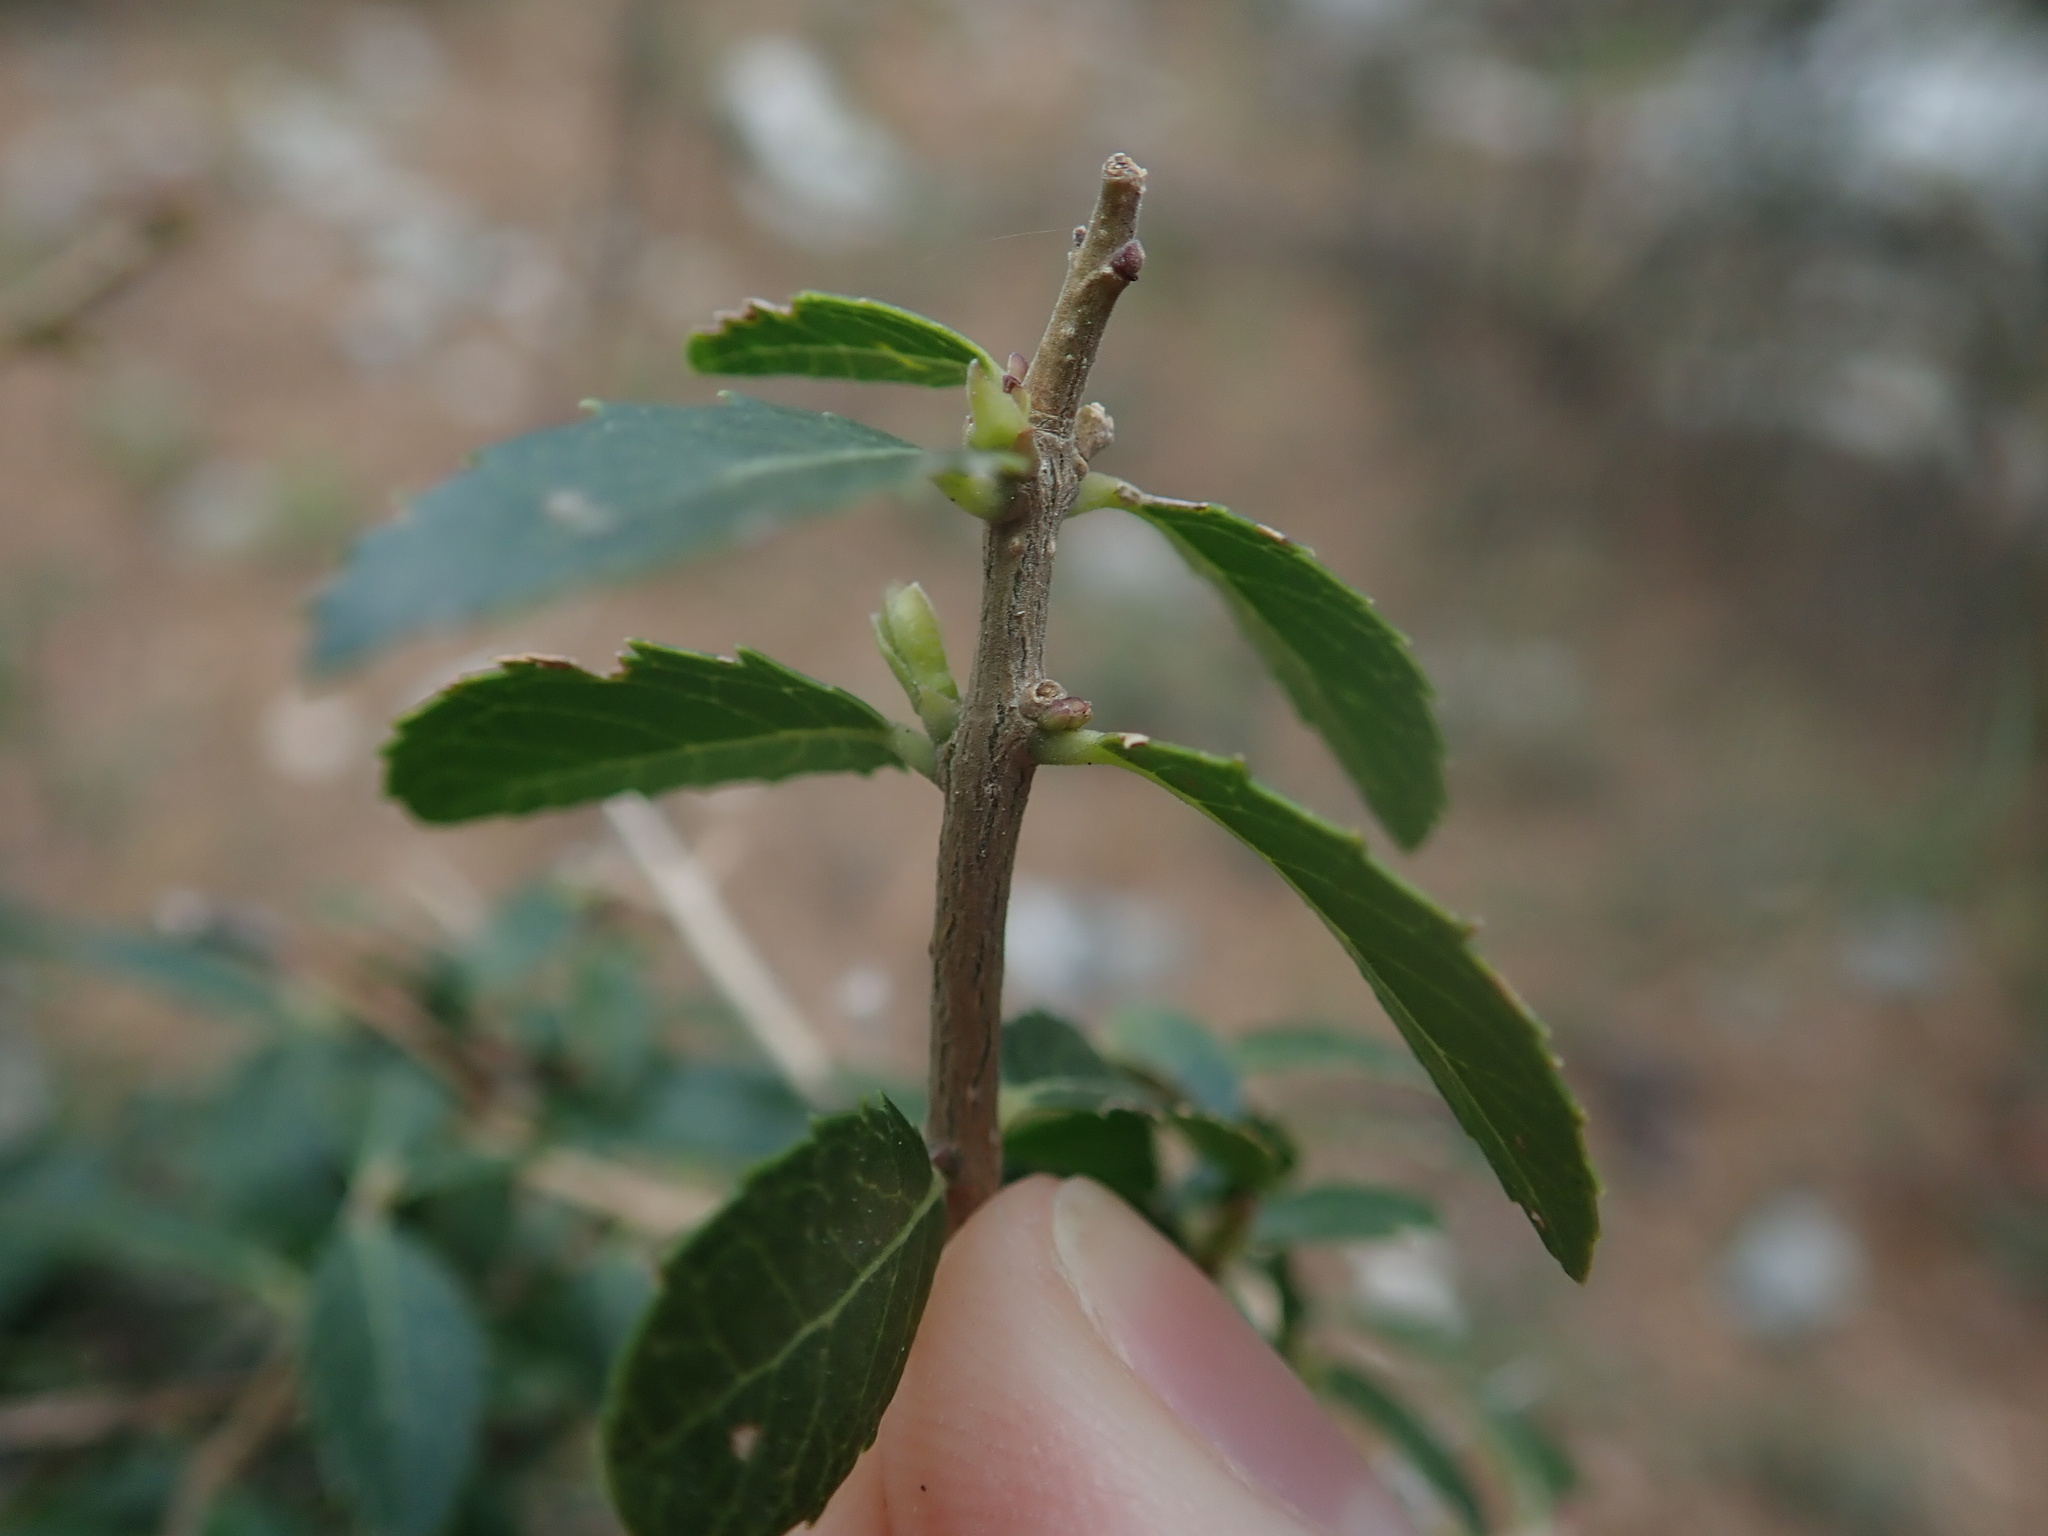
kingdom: Plantae
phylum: Tracheophyta
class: Magnoliopsida
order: Lamiales
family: Oleaceae
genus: Phillyrea
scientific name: Phillyrea latifolia
